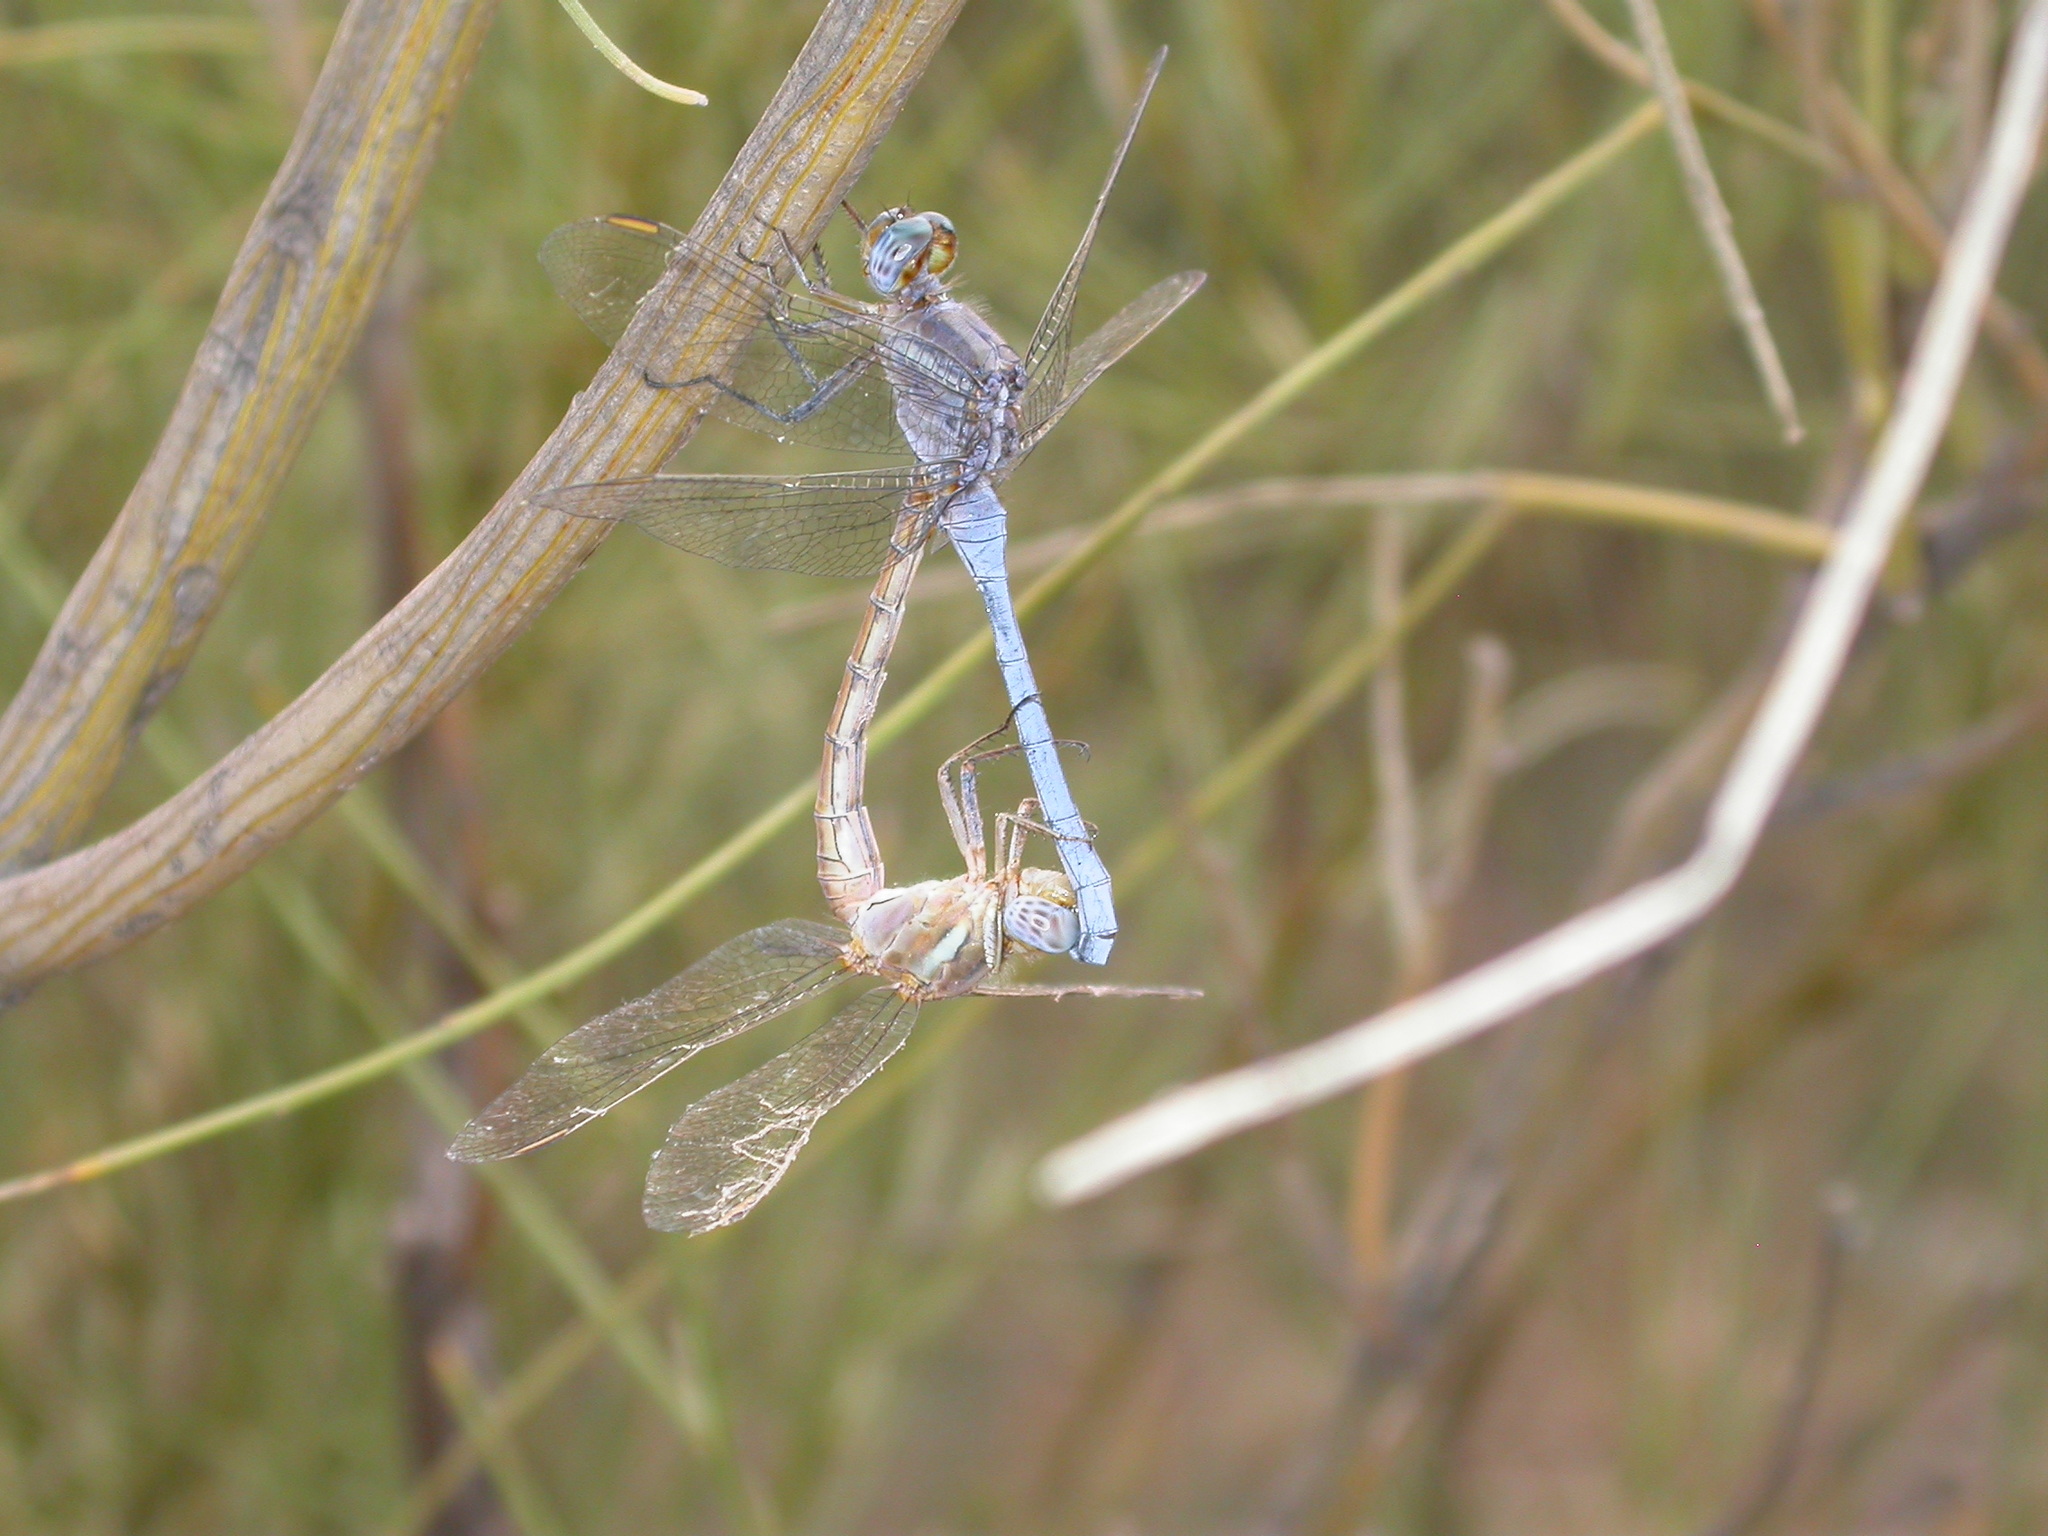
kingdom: Animalia
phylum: Arthropoda
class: Insecta
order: Odonata
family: Libellulidae
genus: Orthetrum
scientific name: Orthetrum chrysostigma
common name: Epaulet skimmer
